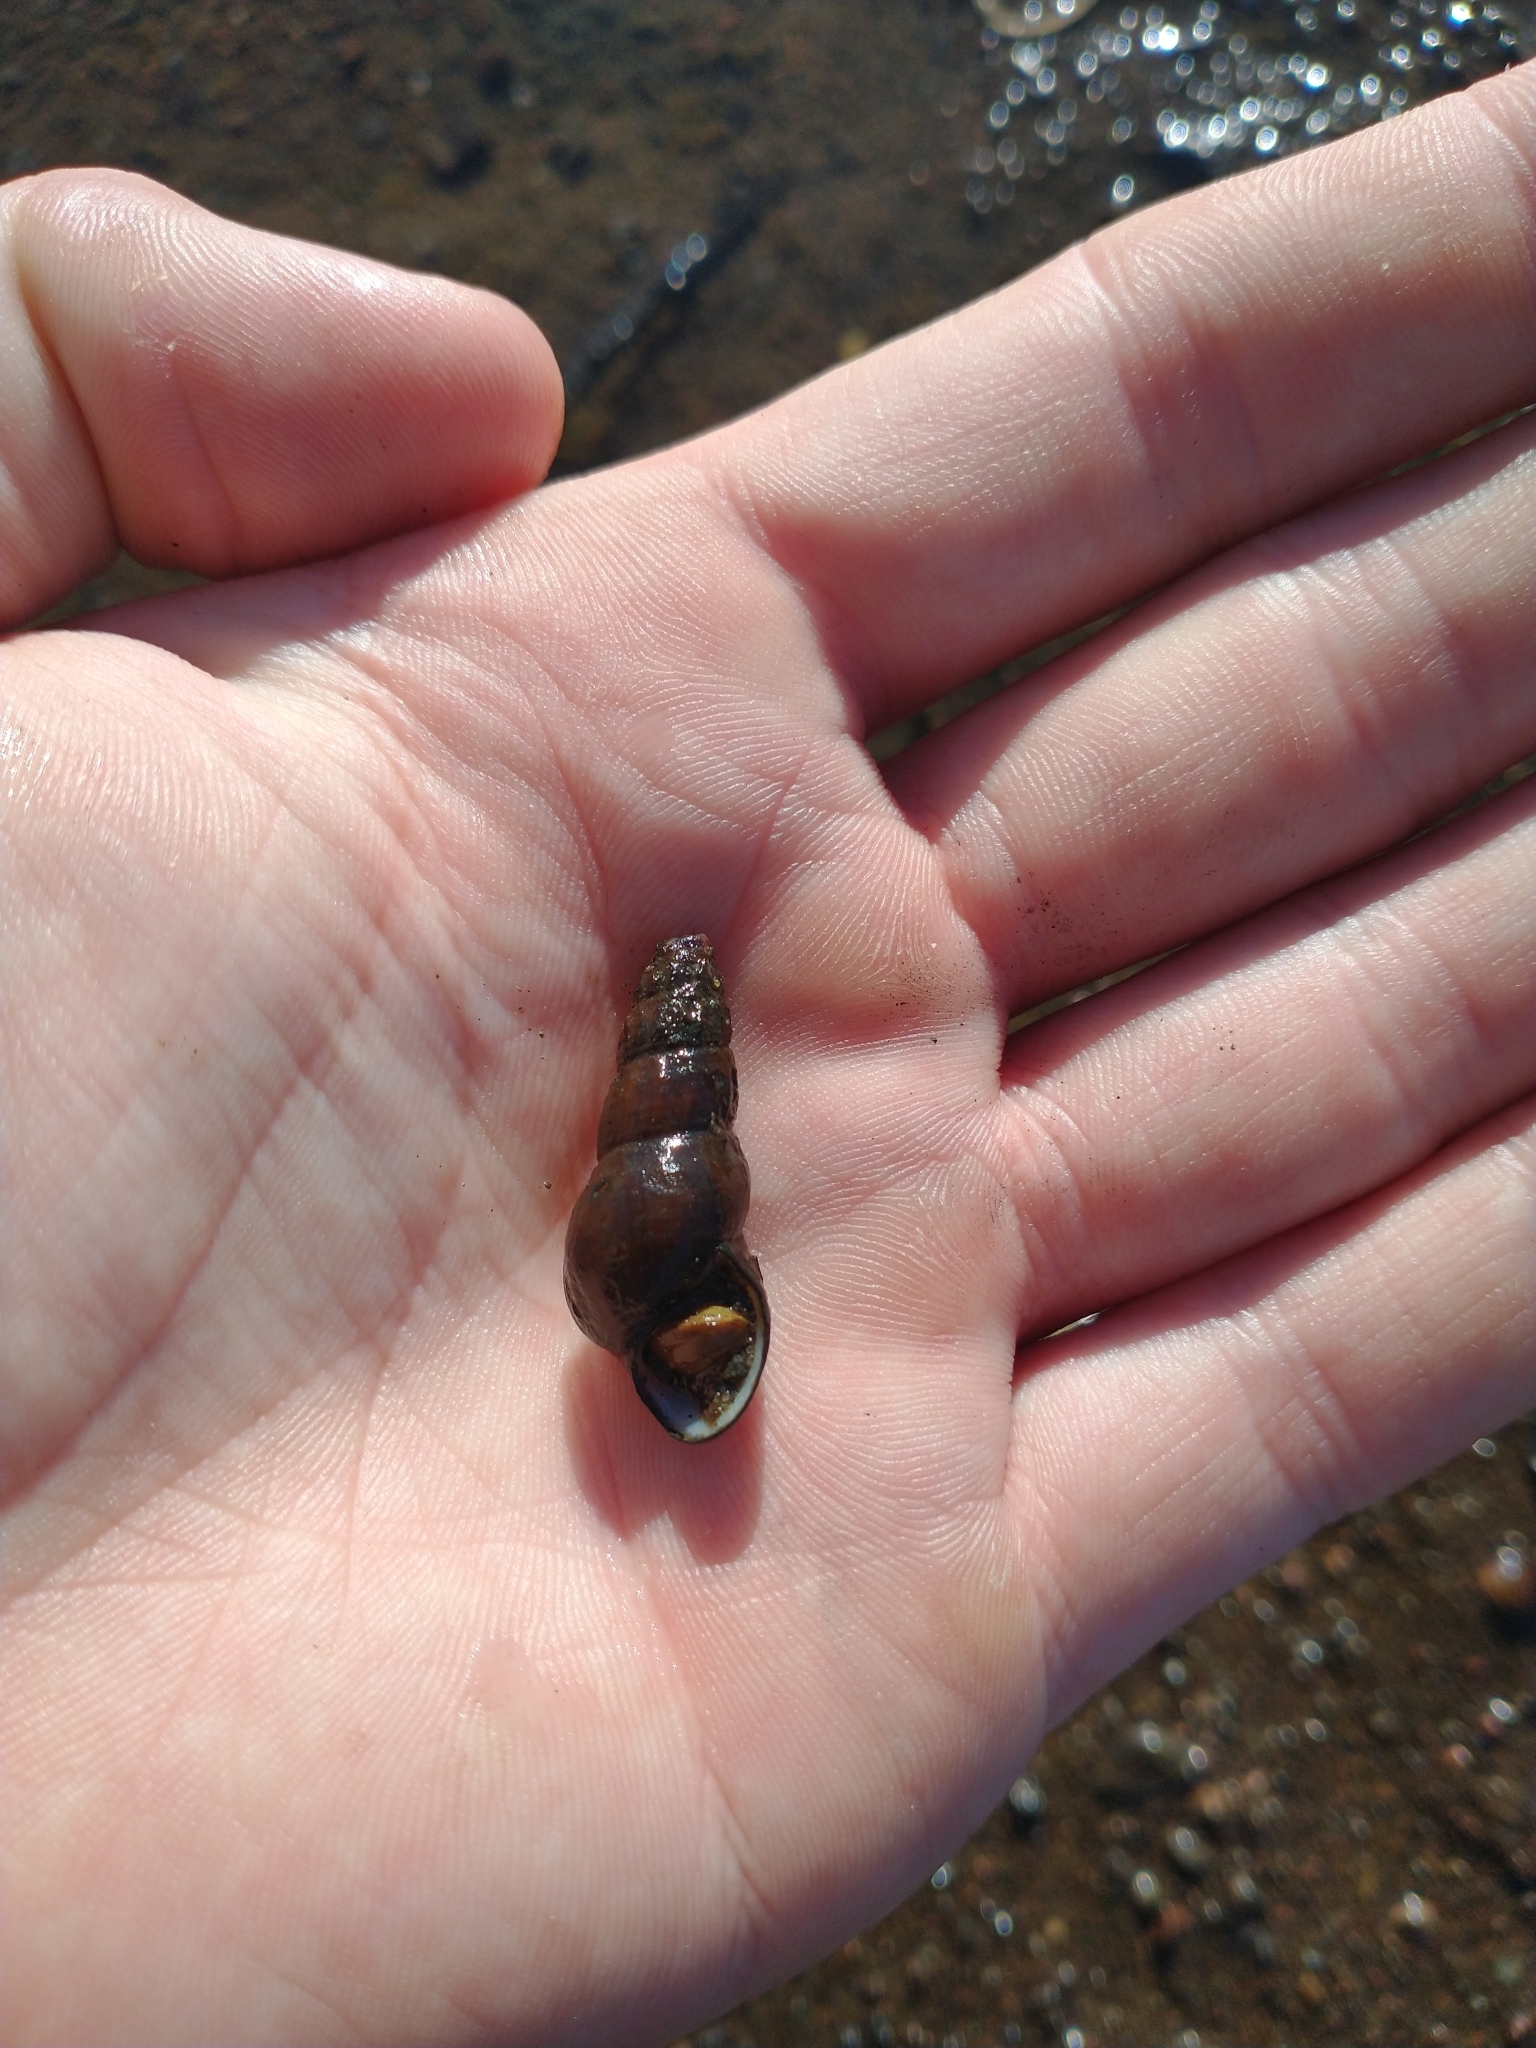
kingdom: Animalia
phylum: Mollusca
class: Gastropoda
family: Semisulcospiridae
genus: Juga
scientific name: Juga plicifera
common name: Pleated juga
